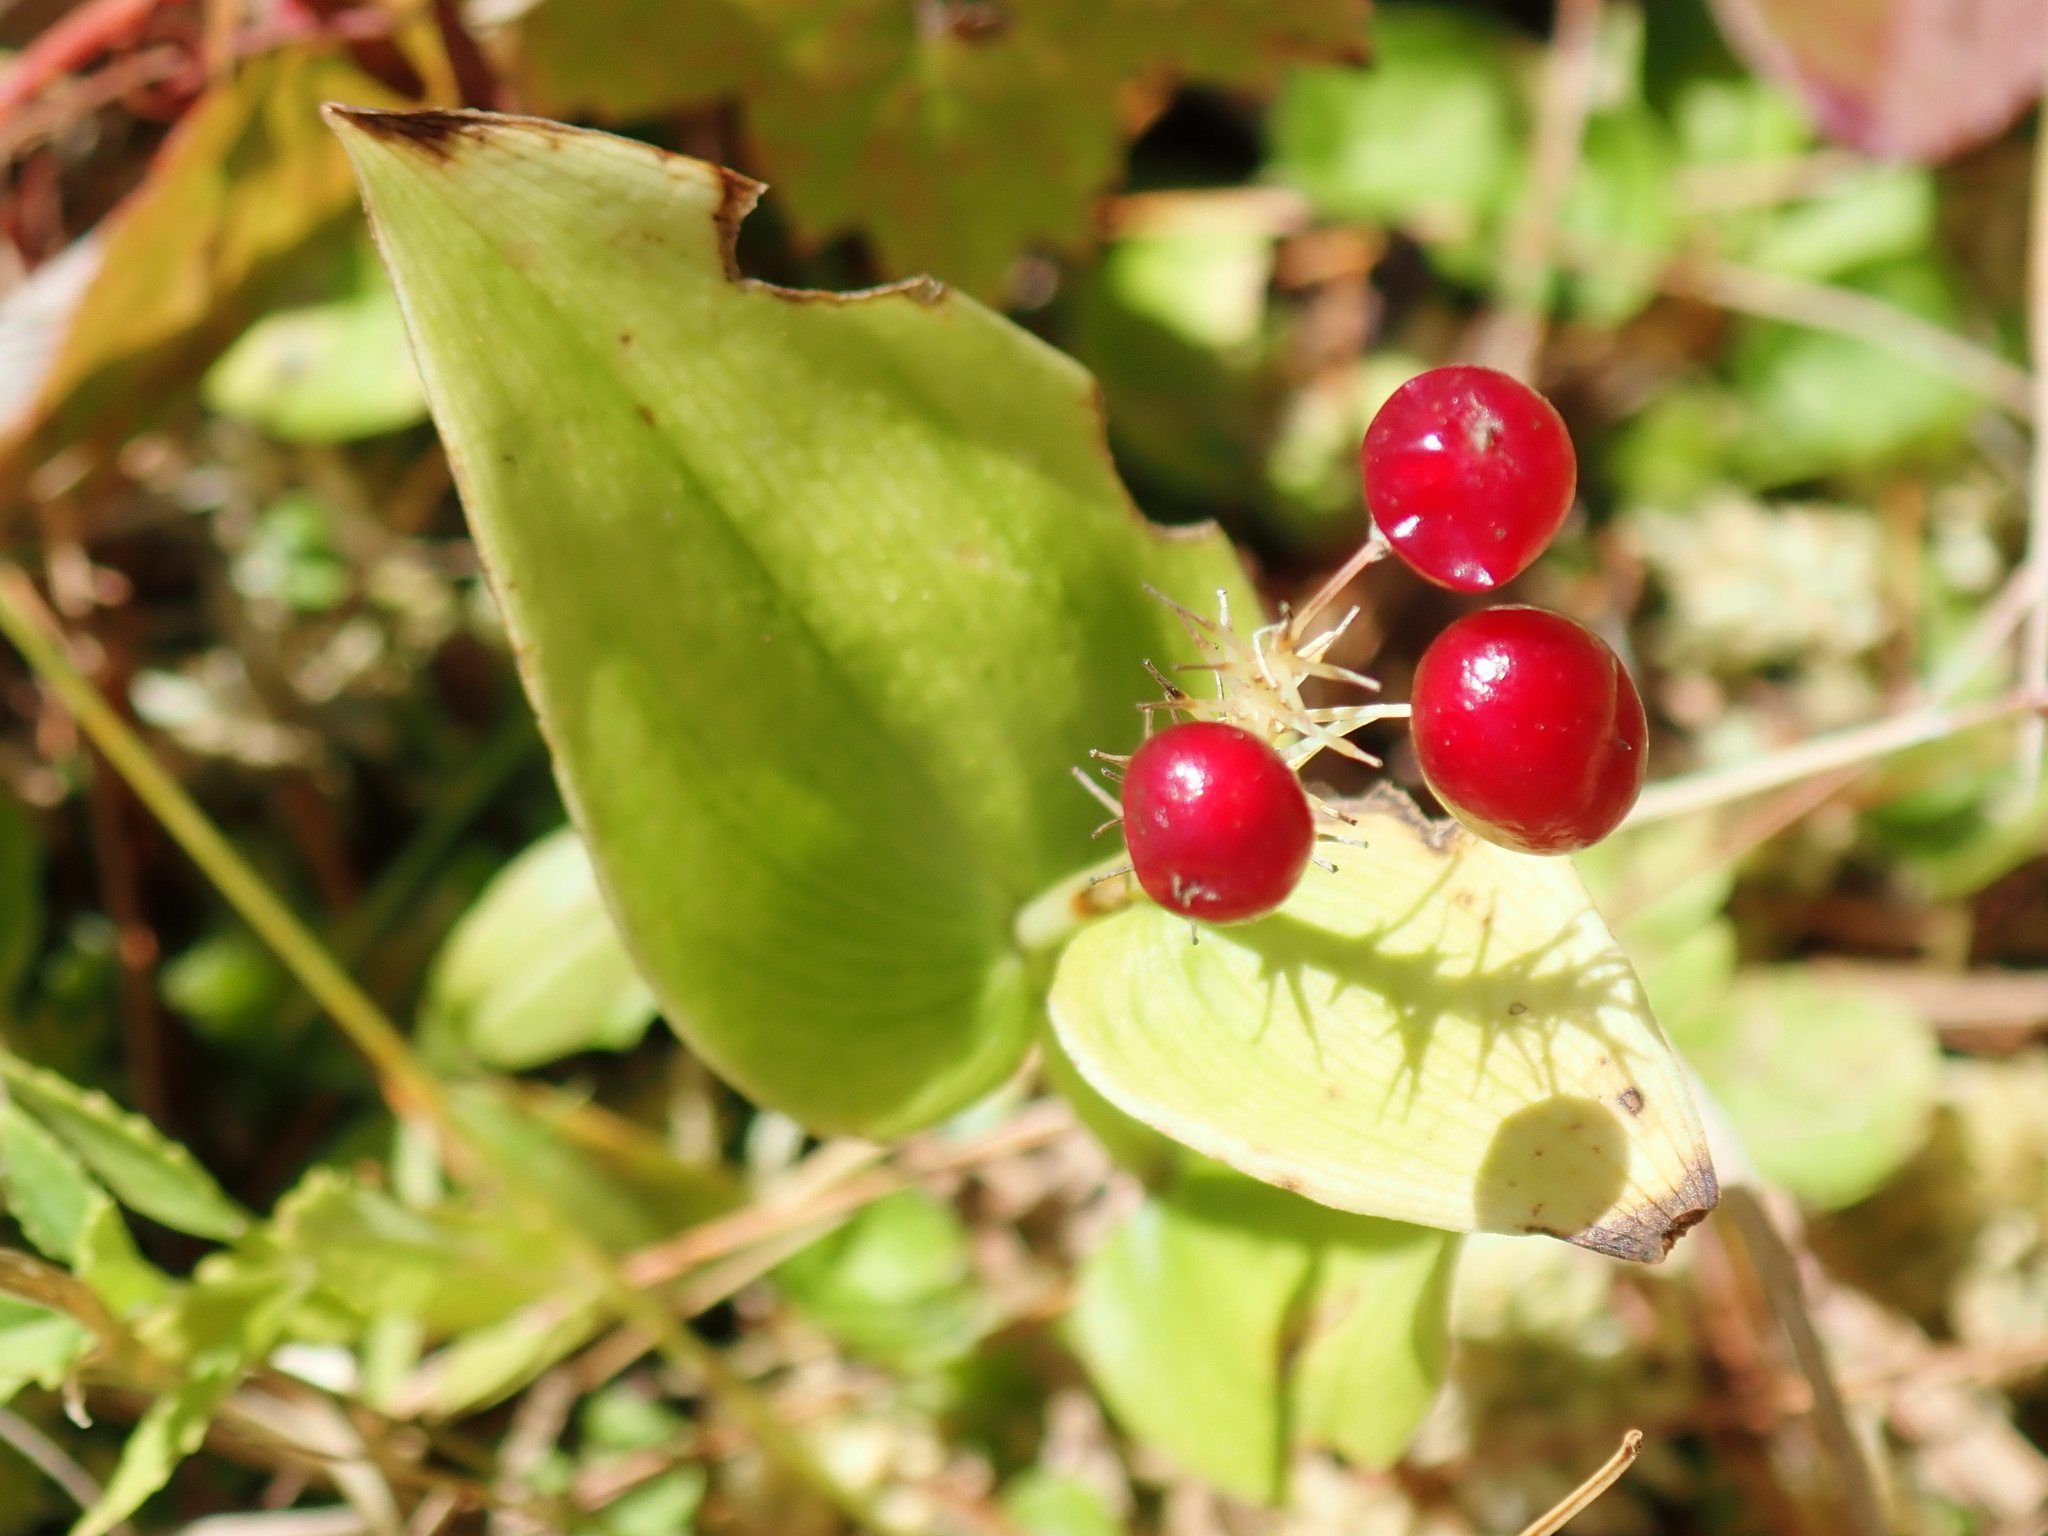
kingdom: Plantae
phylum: Tracheophyta
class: Liliopsida
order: Asparagales
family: Asparagaceae
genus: Maianthemum
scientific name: Maianthemum canadense
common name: False lily-of-the-valley
